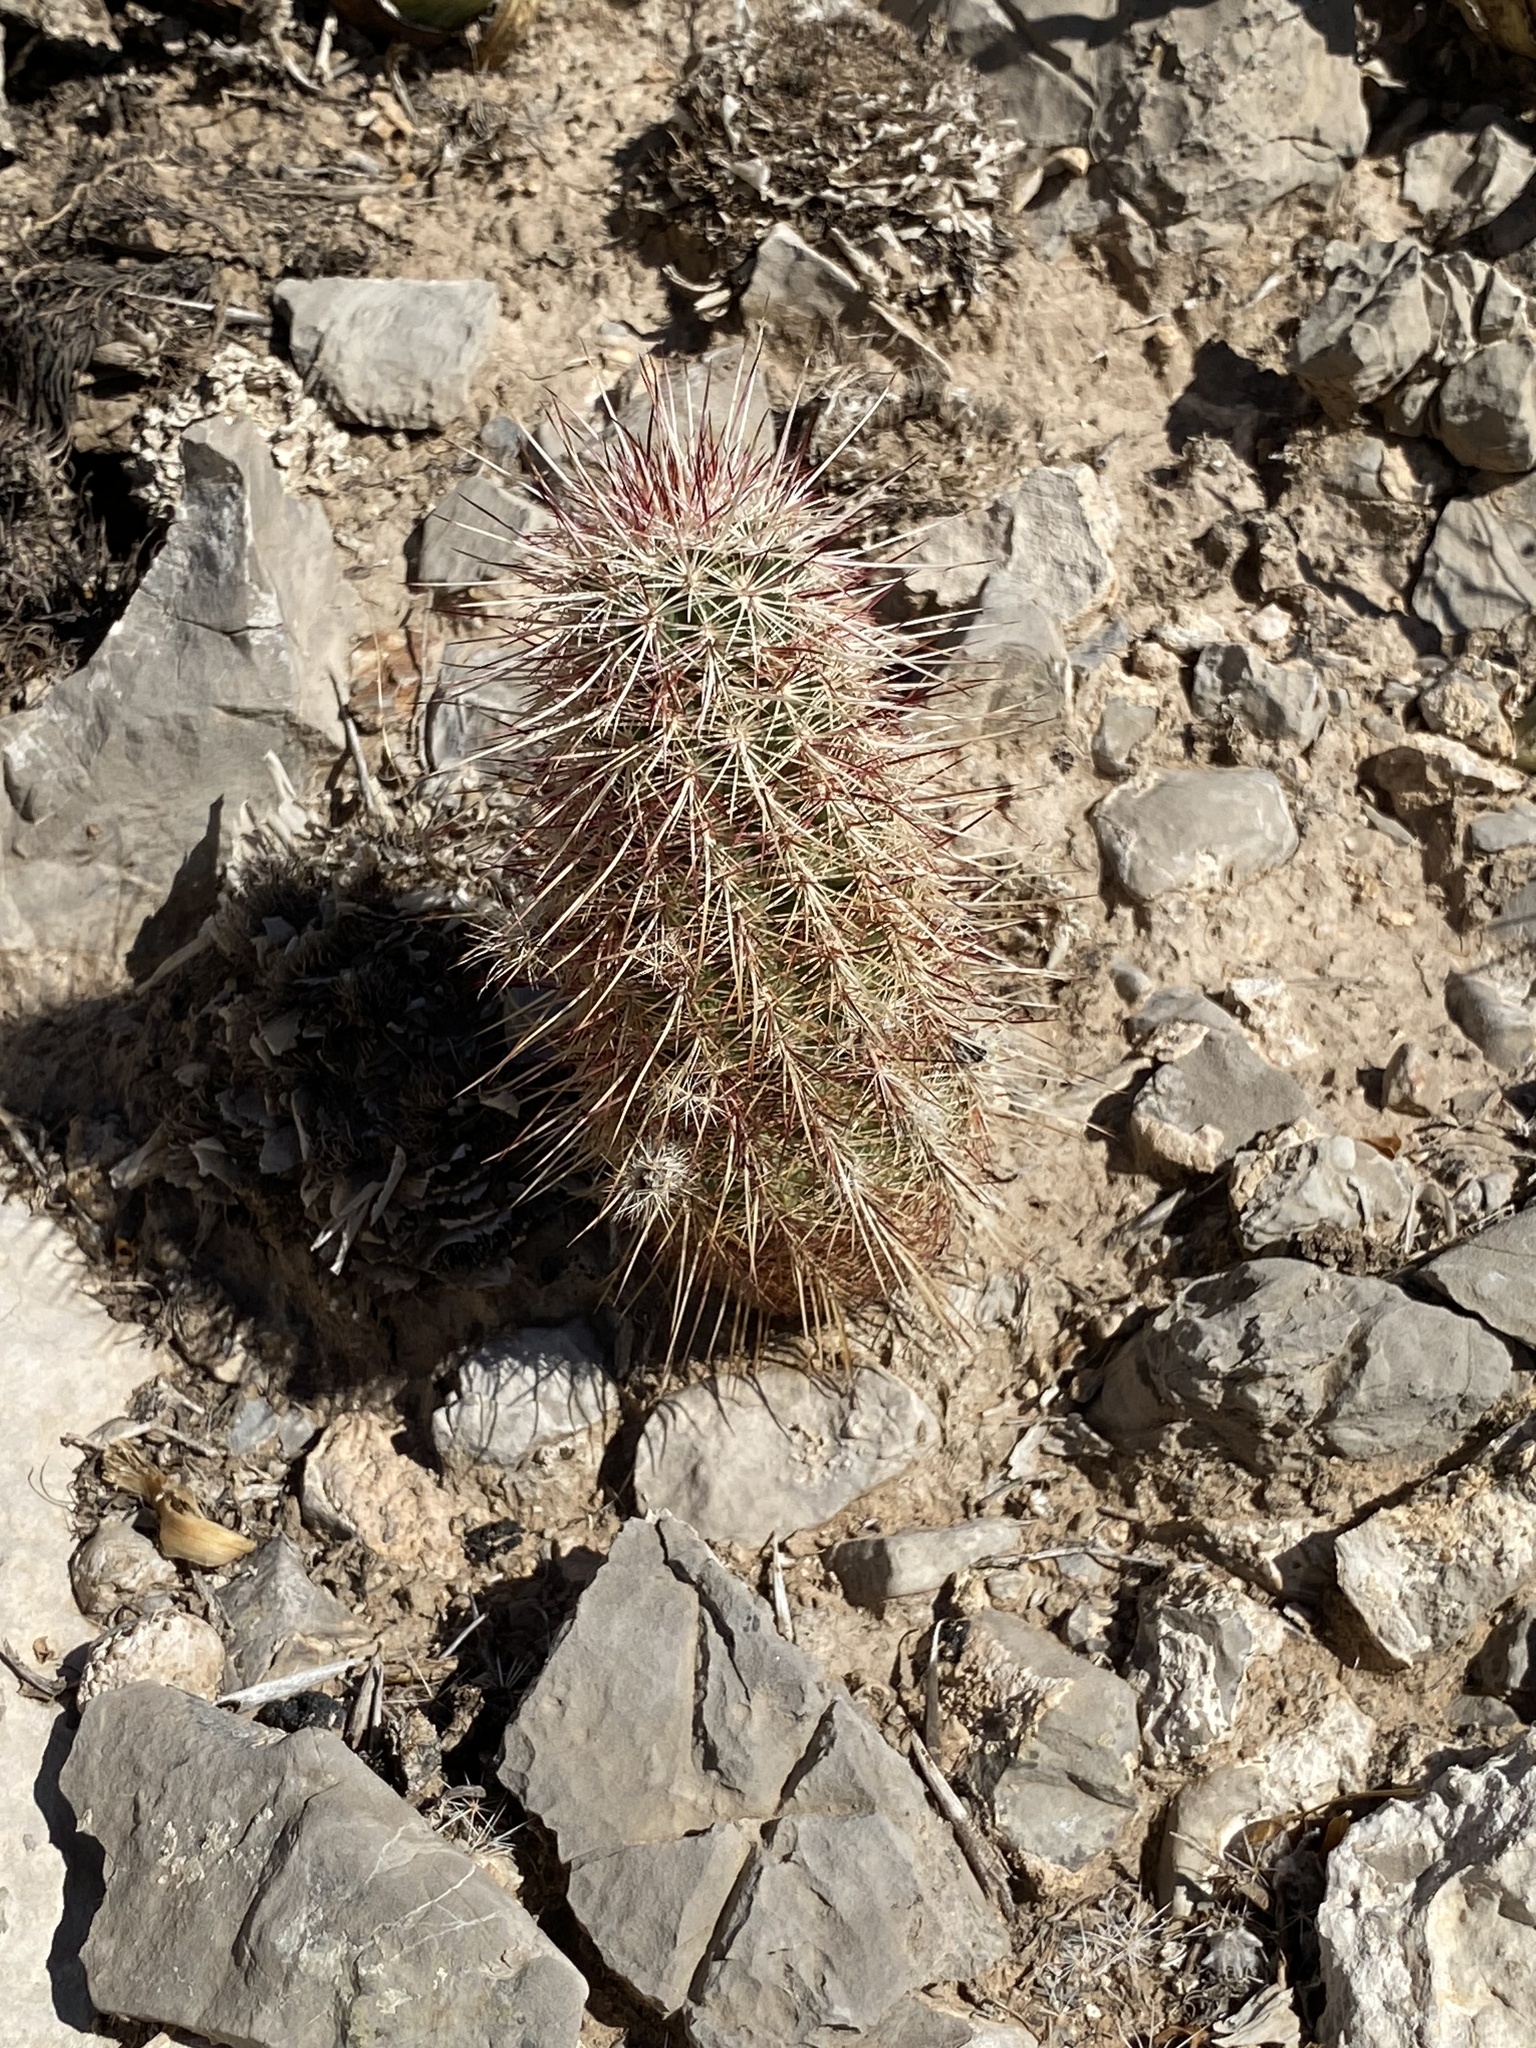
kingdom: Plantae
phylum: Tracheophyta
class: Magnoliopsida
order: Caryophyllales
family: Cactaceae
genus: Echinocereus
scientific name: Echinocereus viridiflorus
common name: Nylon hedgehog cactus
